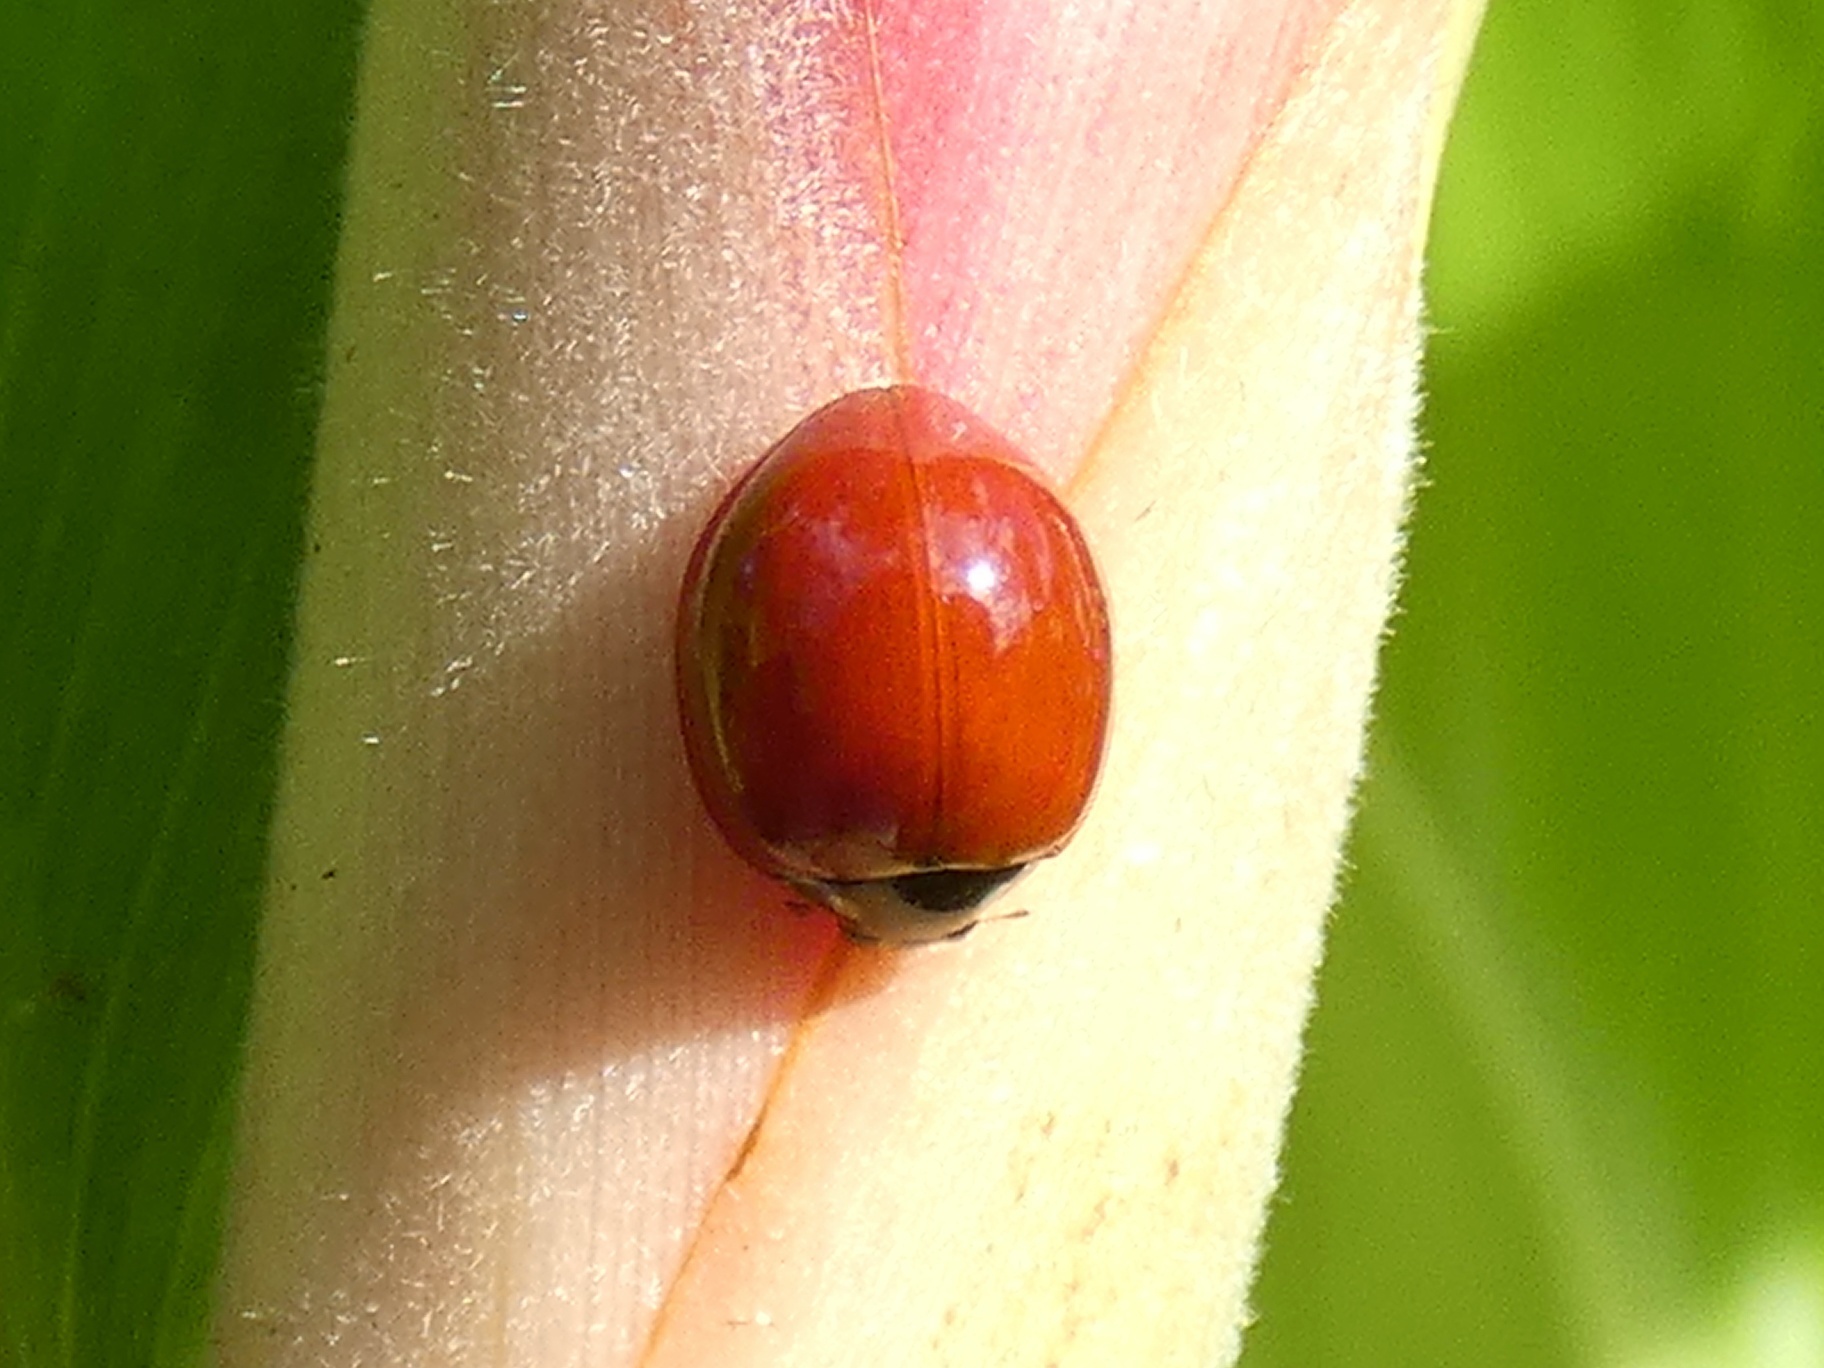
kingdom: Animalia
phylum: Arthropoda
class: Insecta
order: Coleoptera
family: Coccinellidae
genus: Cycloneda
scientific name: Cycloneda sanguinea
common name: Ladybird beetle
